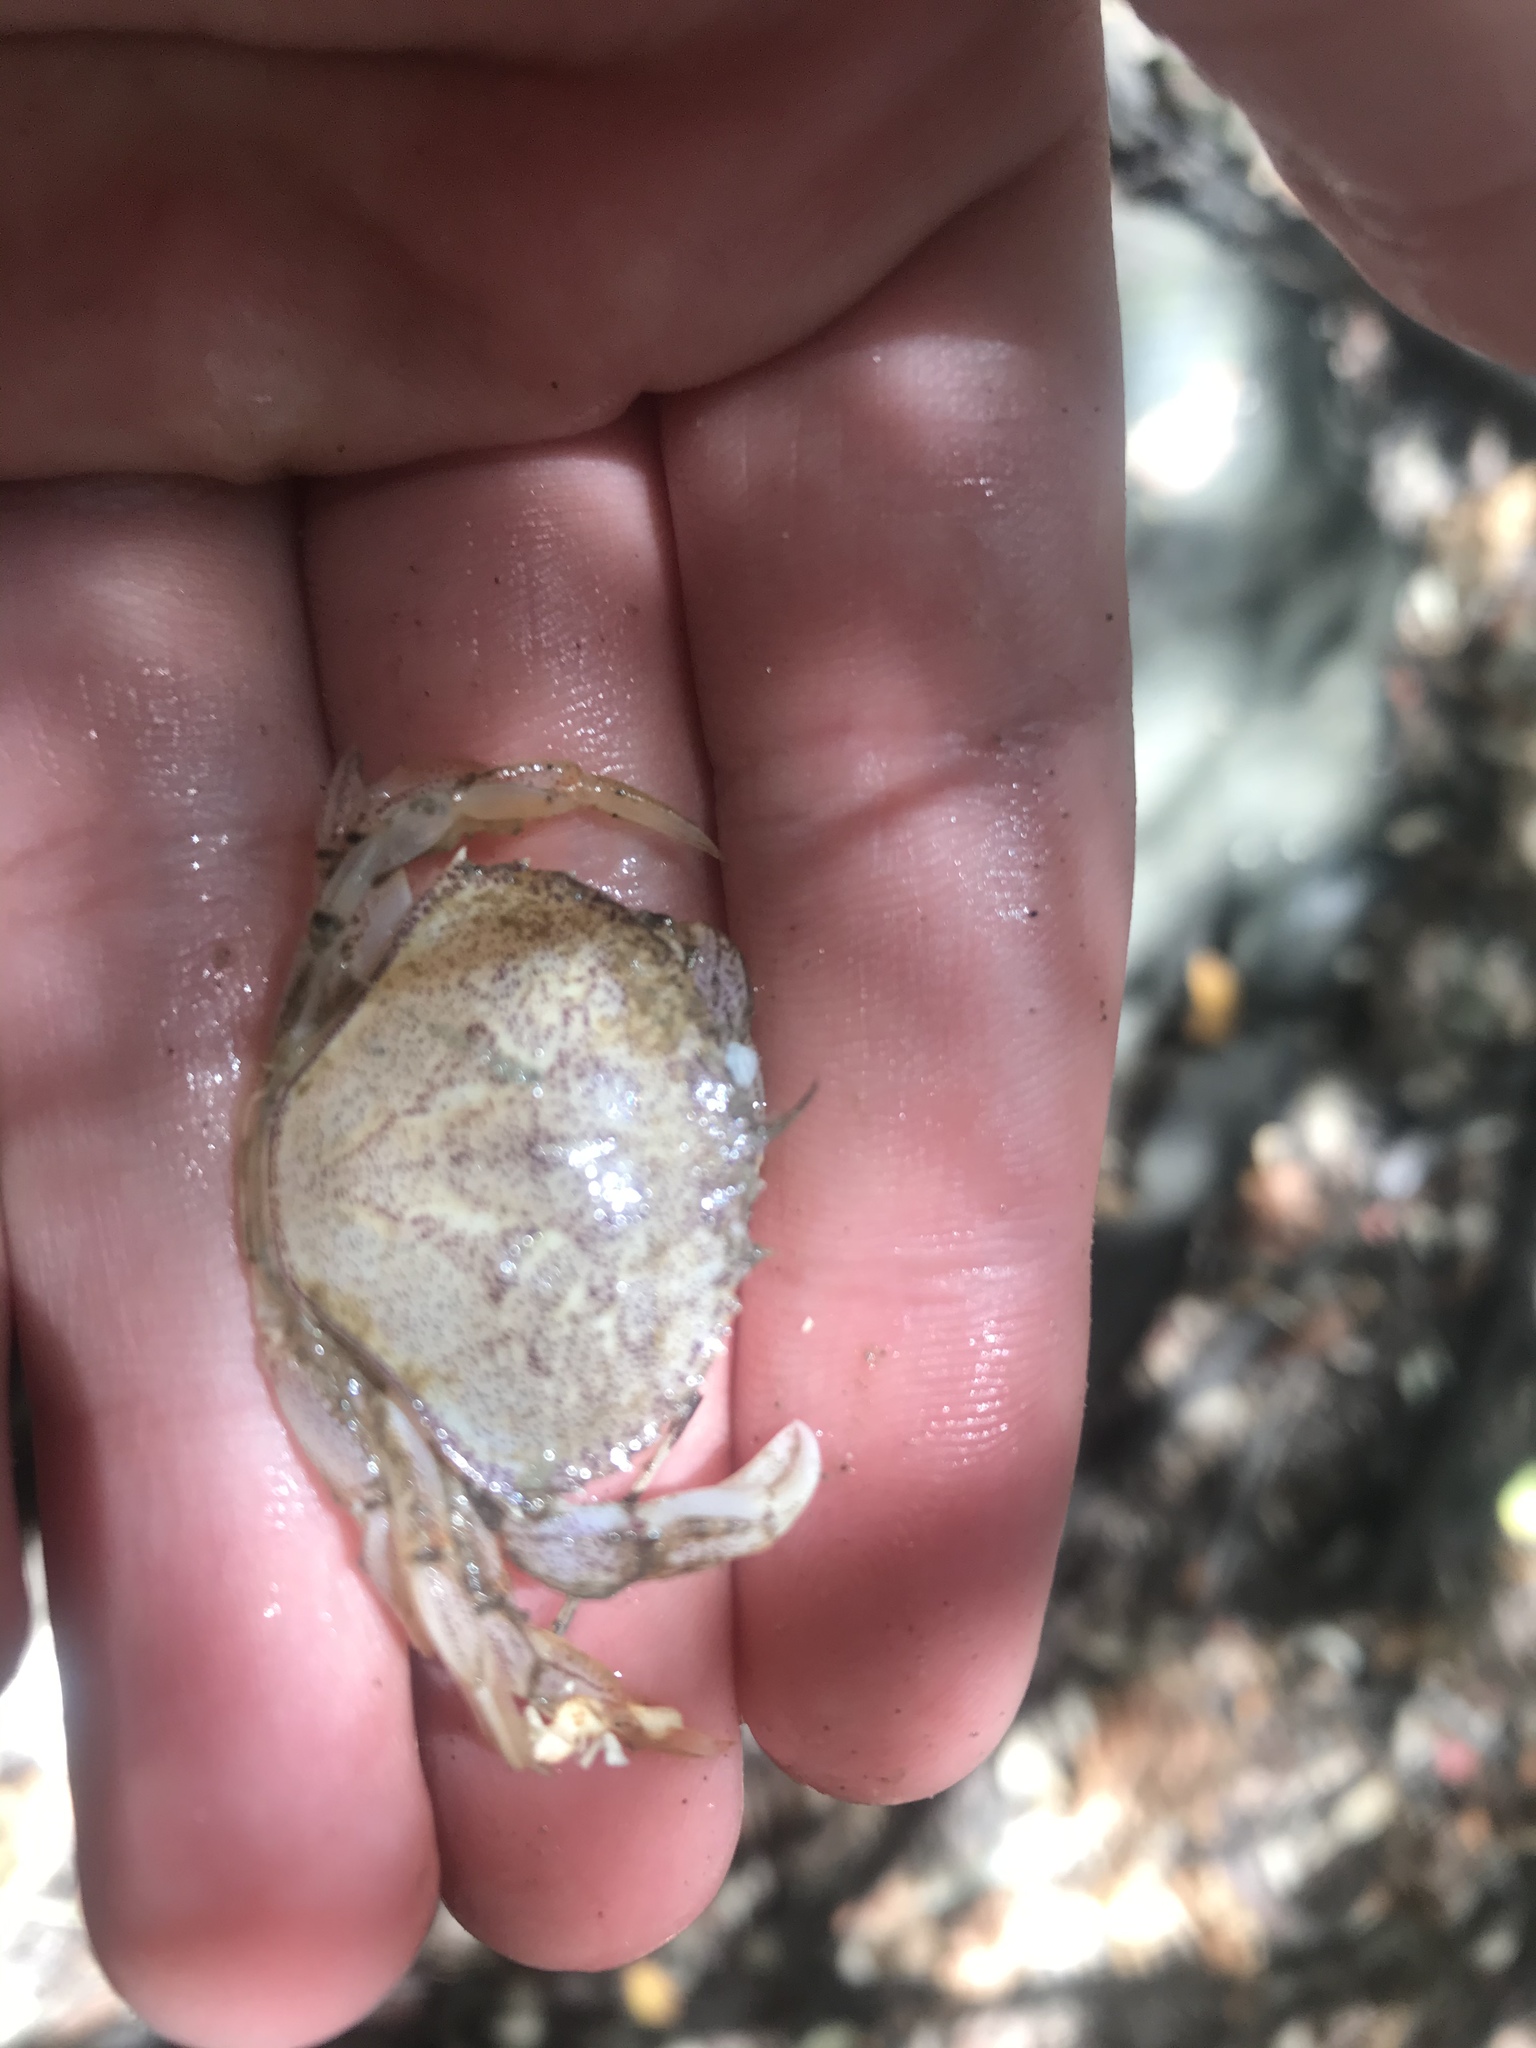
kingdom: Animalia
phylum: Arthropoda
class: Malacostraca
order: Decapoda
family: Cancridae
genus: Metacarcinus
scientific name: Metacarcinus magister
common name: Californian crab
